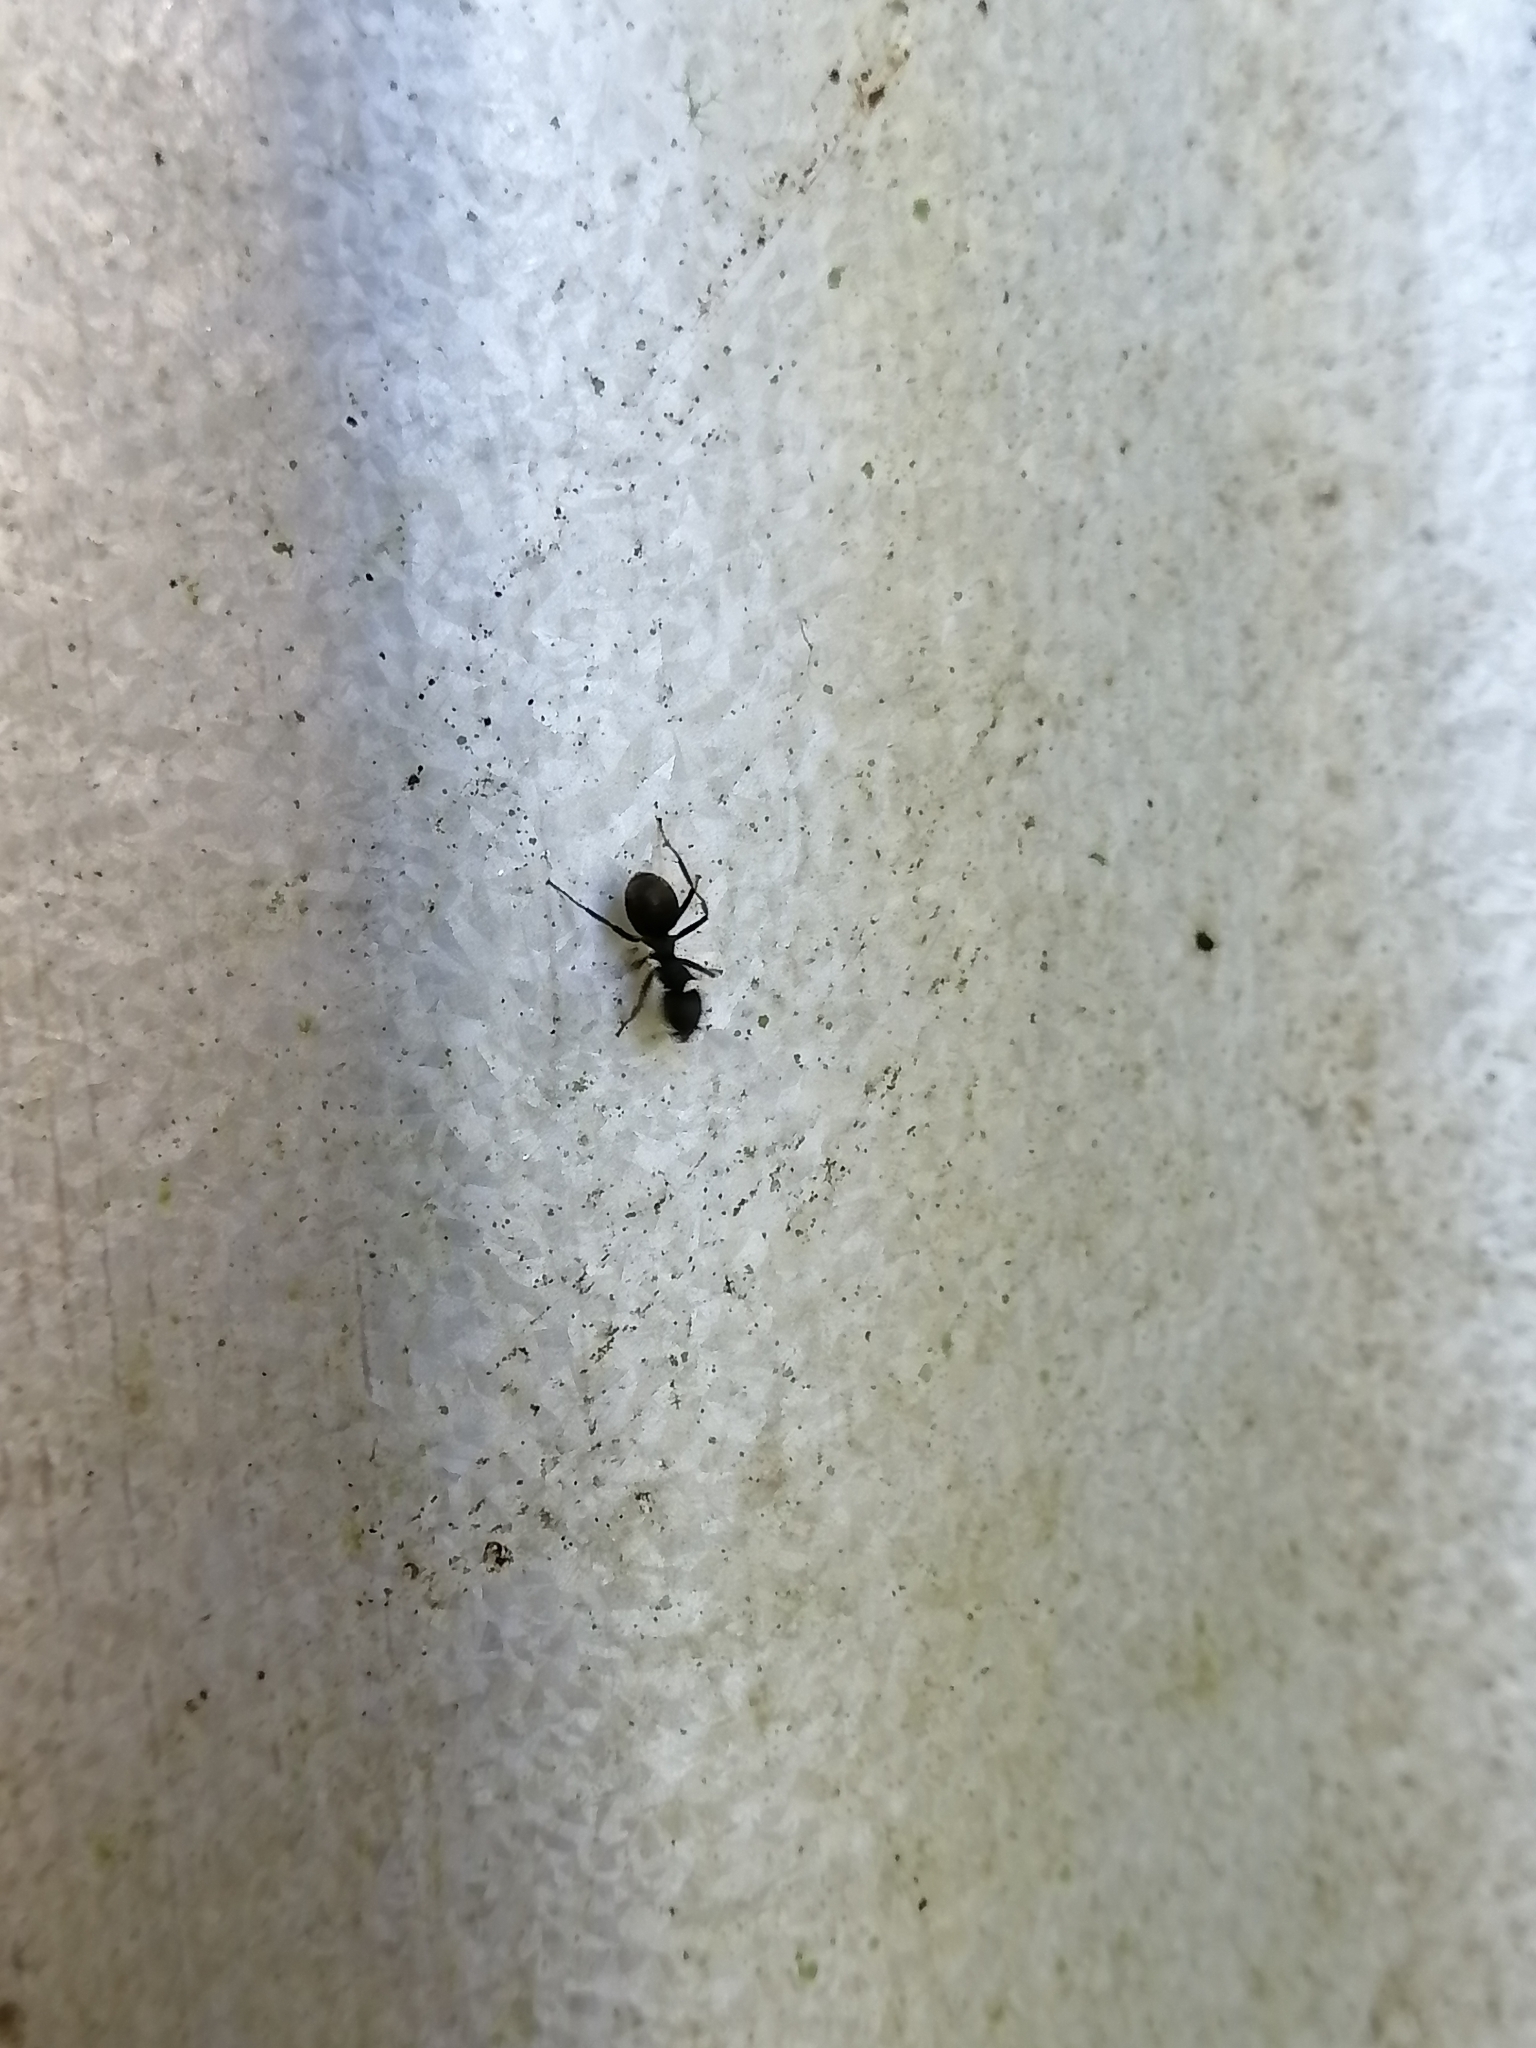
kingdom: Animalia
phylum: Arthropoda
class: Insecta
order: Hymenoptera
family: Formicidae
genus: Dolichoderus
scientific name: Dolichoderus bispinosus
